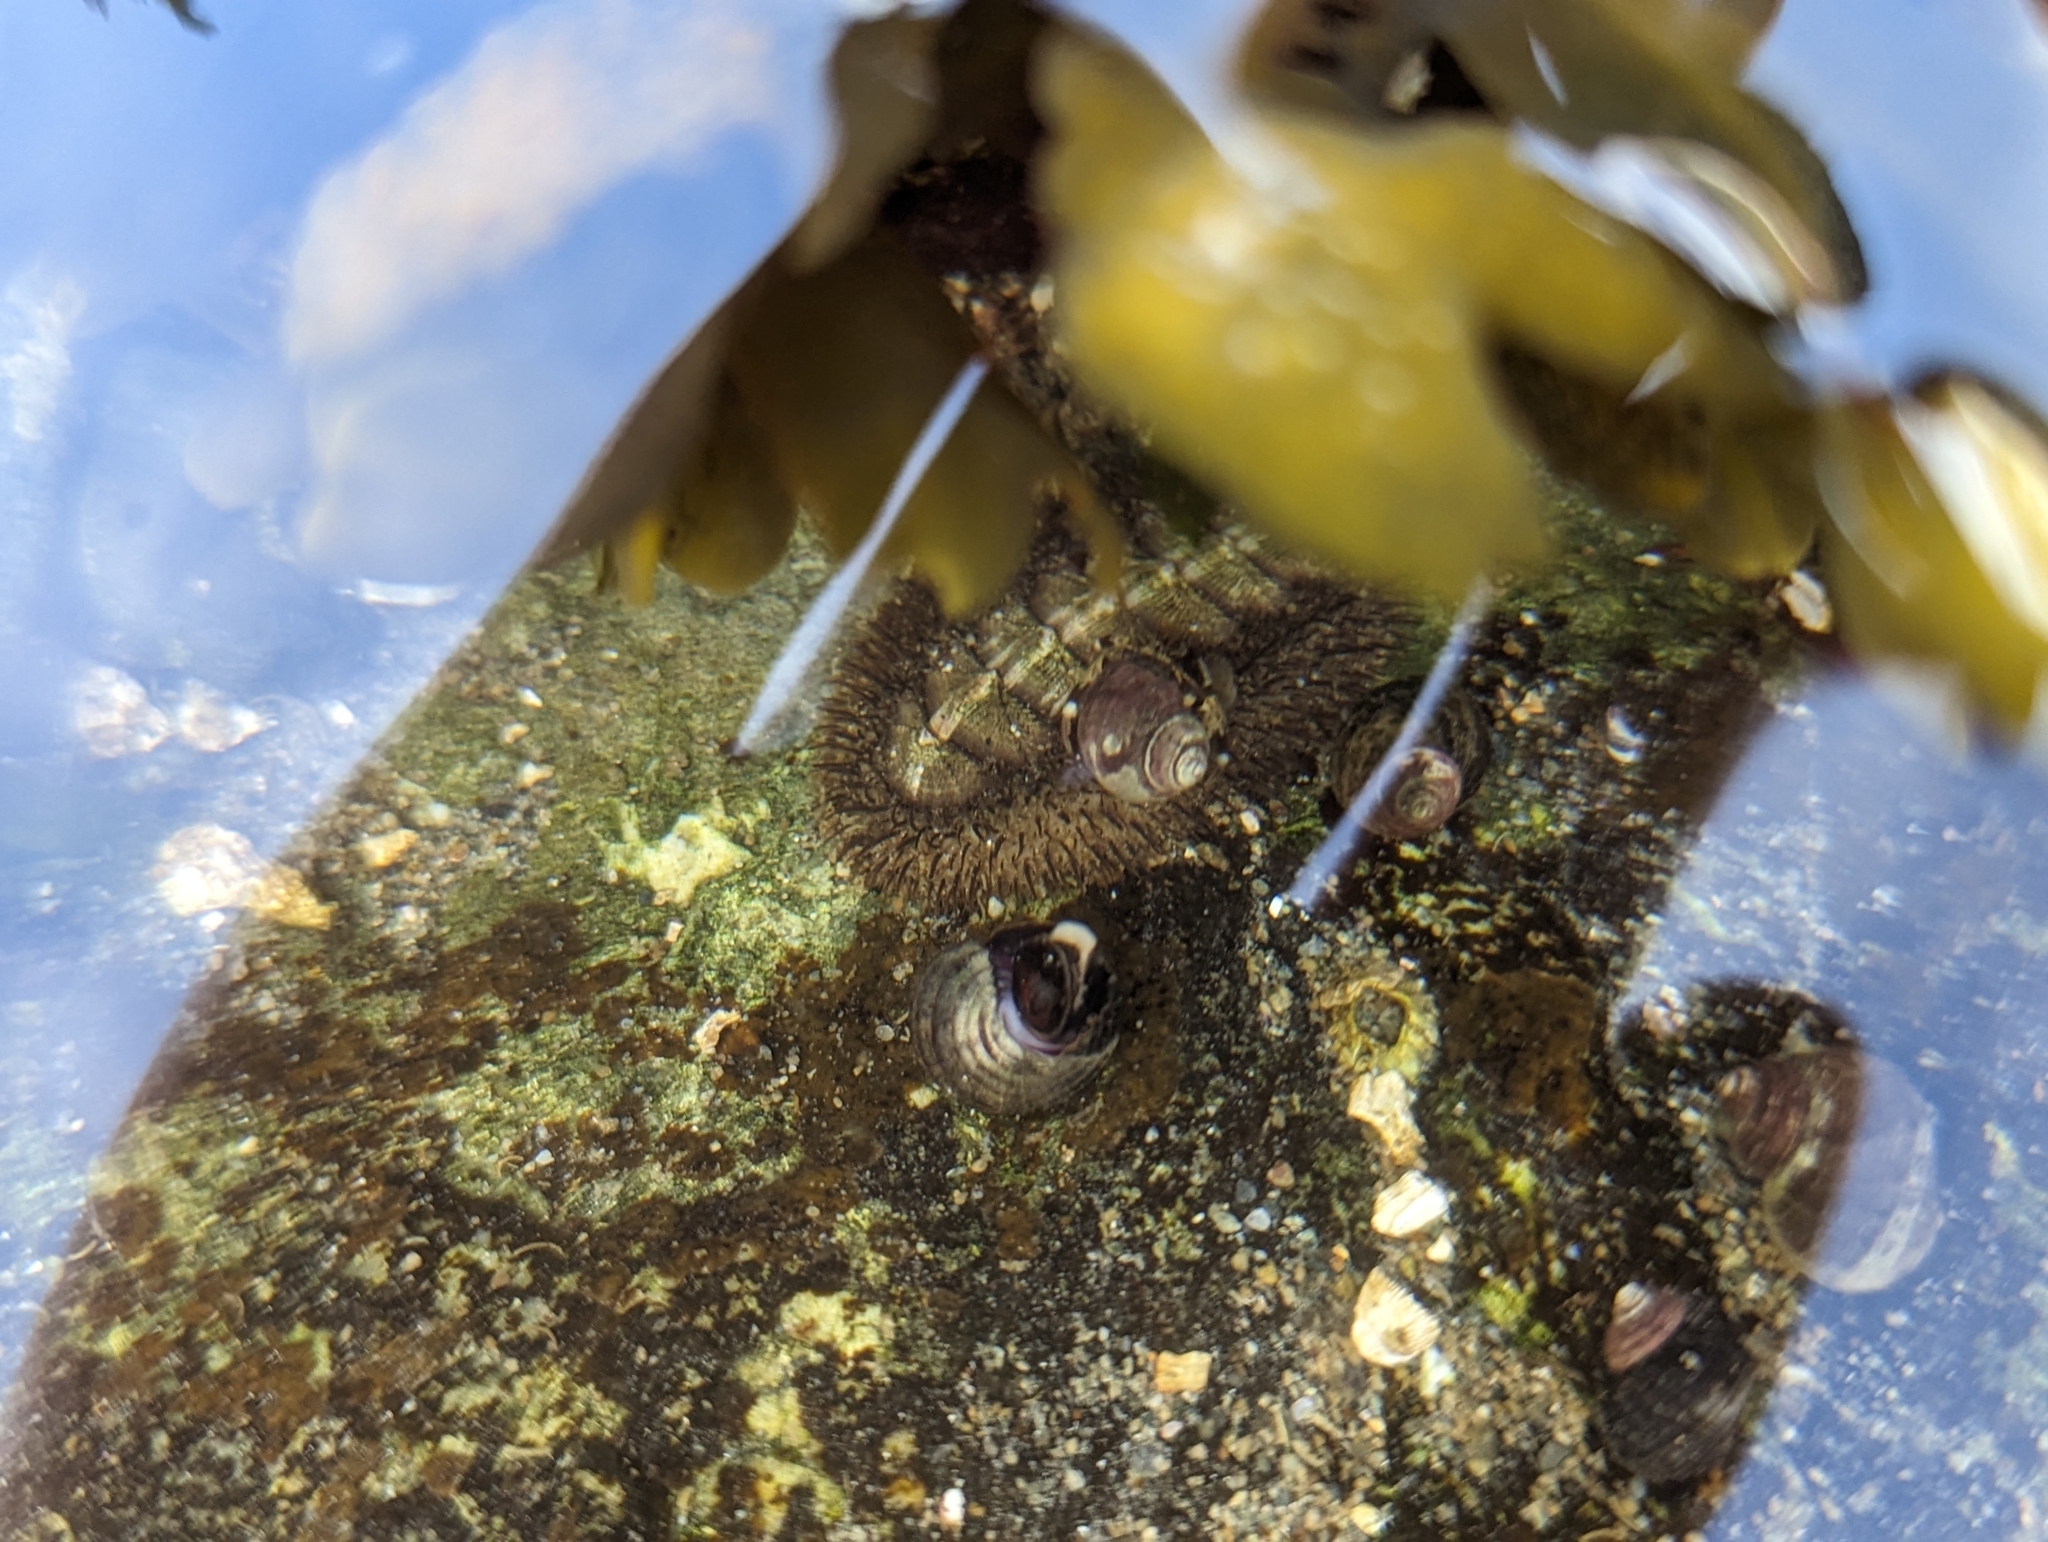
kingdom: Animalia
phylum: Mollusca
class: Polyplacophora
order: Chitonida
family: Mopaliidae
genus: Mopalia
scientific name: Mopalia muscosa
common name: Mossy chiton
